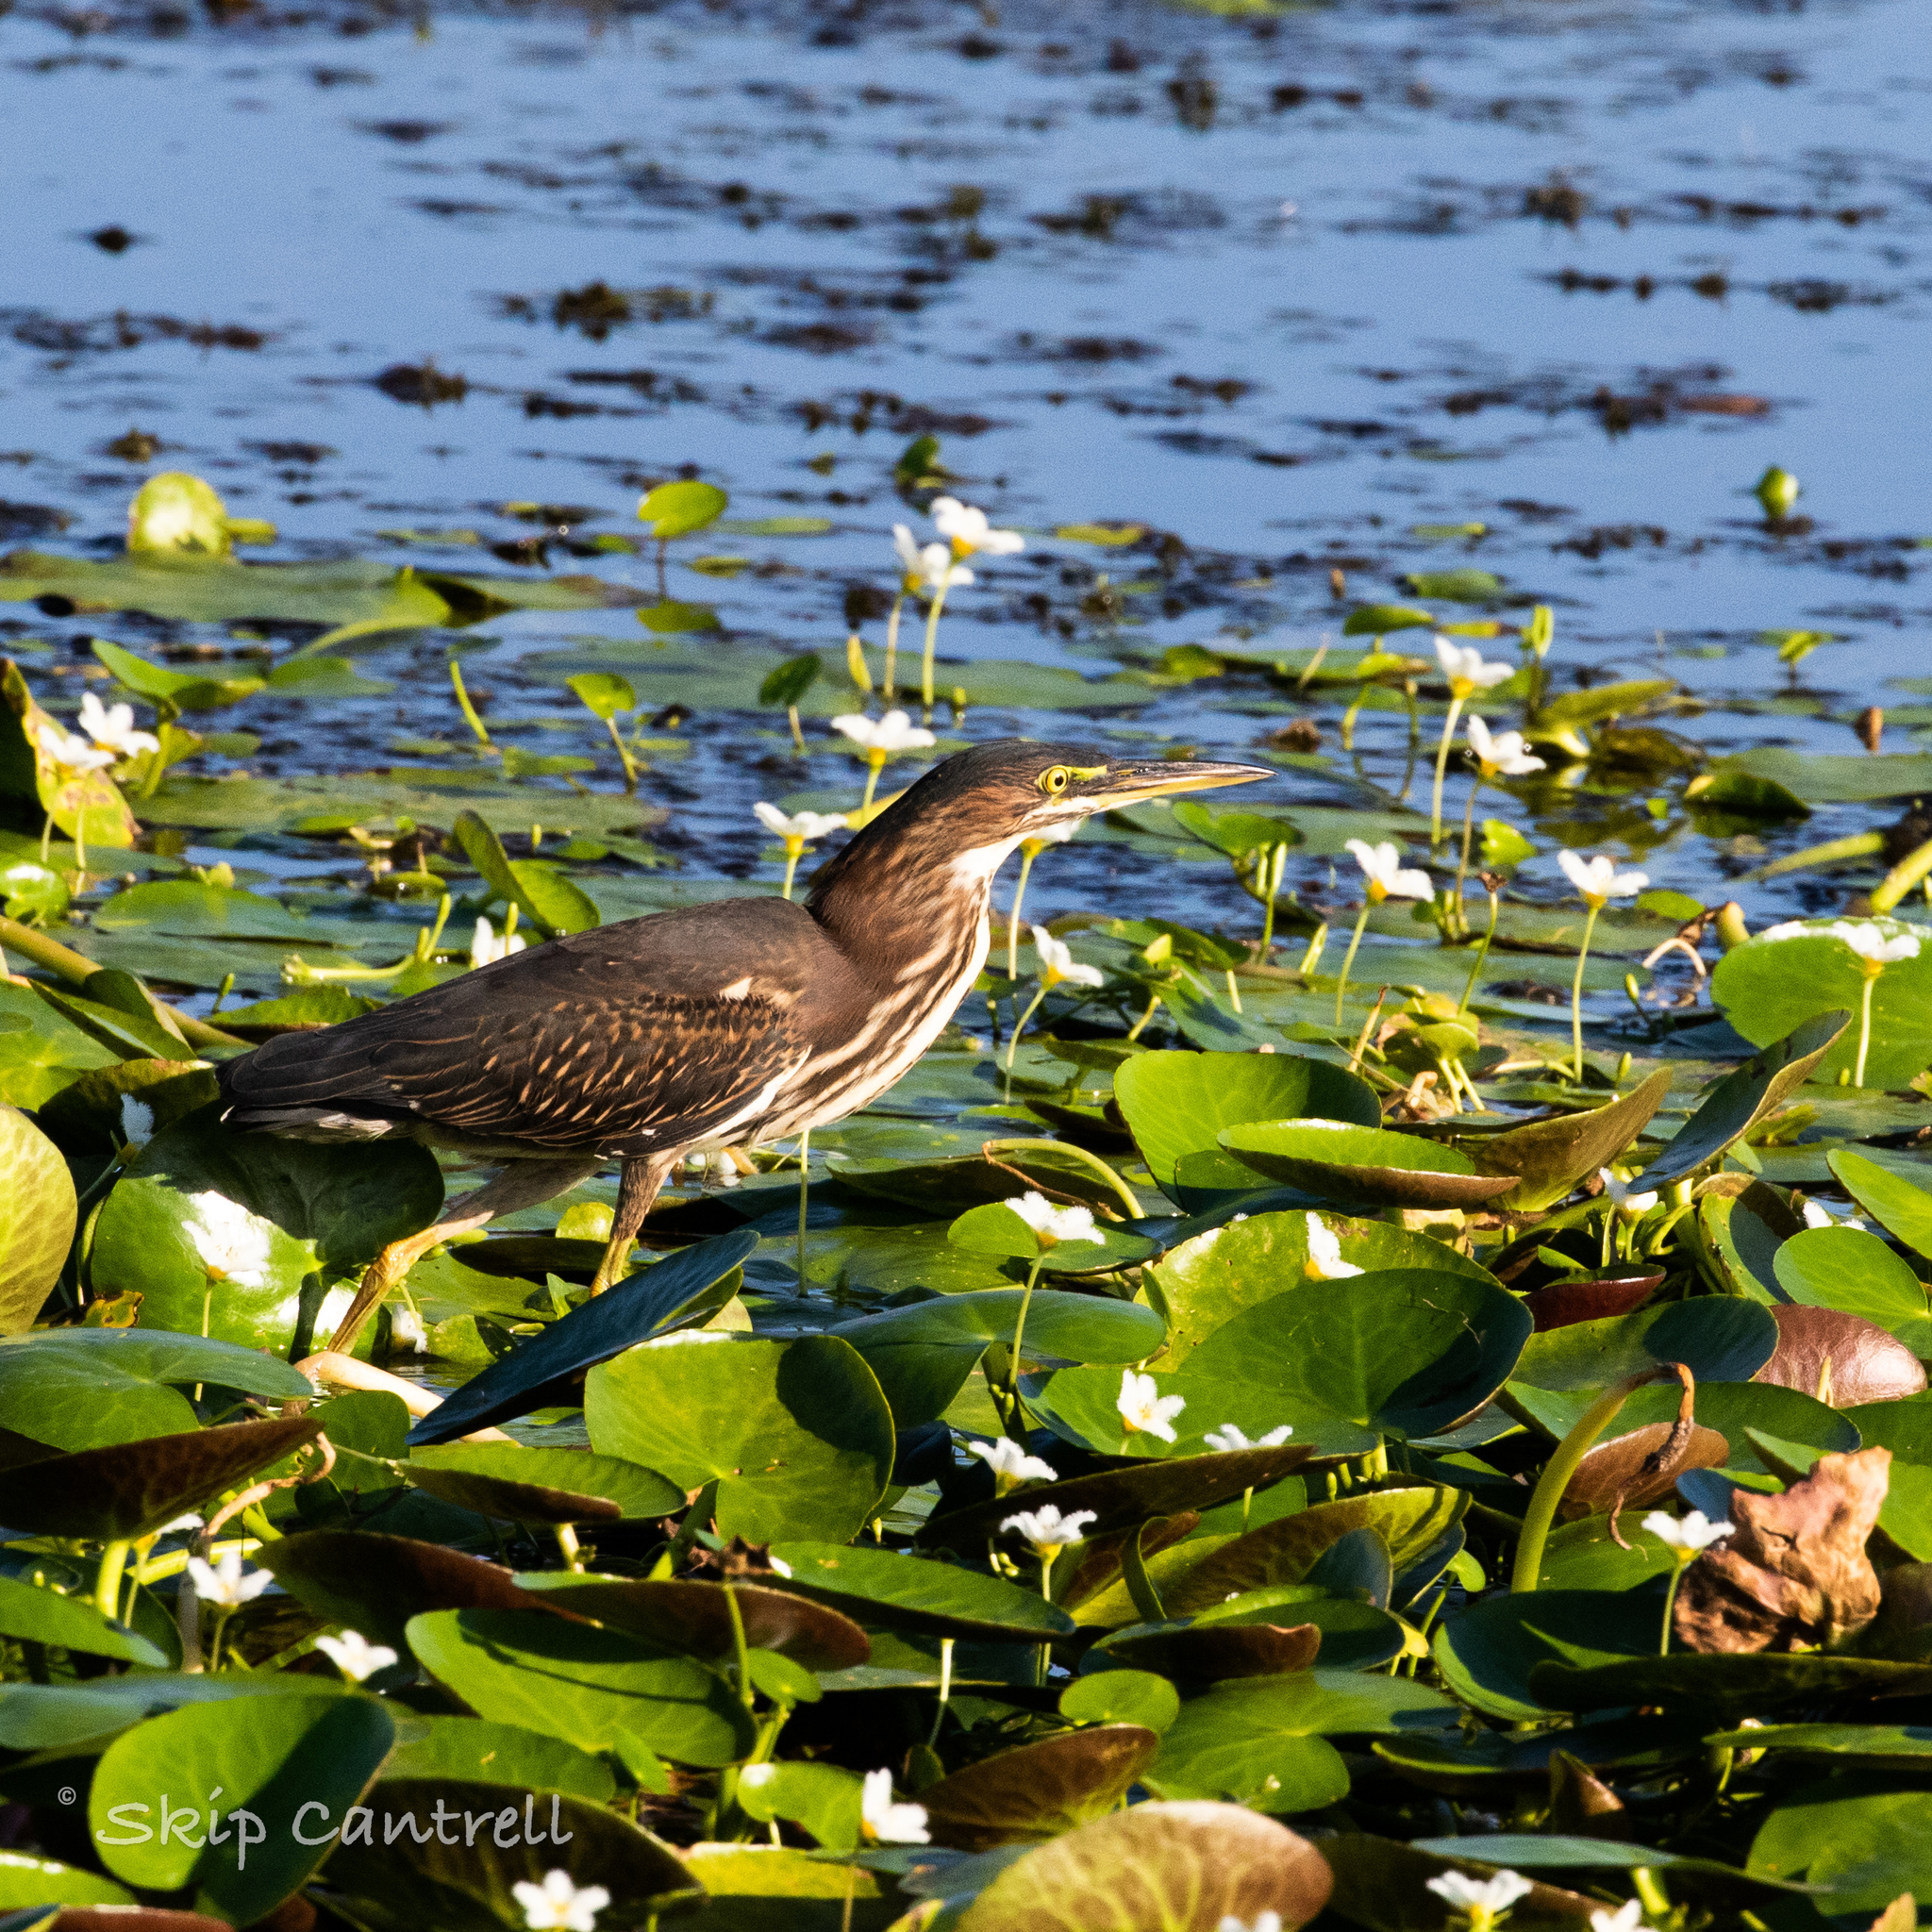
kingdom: Animalia
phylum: Chordata
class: Aves
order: Pelecaniformes
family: Ardeidae
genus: Butorides
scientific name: Butorides virescens
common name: Green heron
